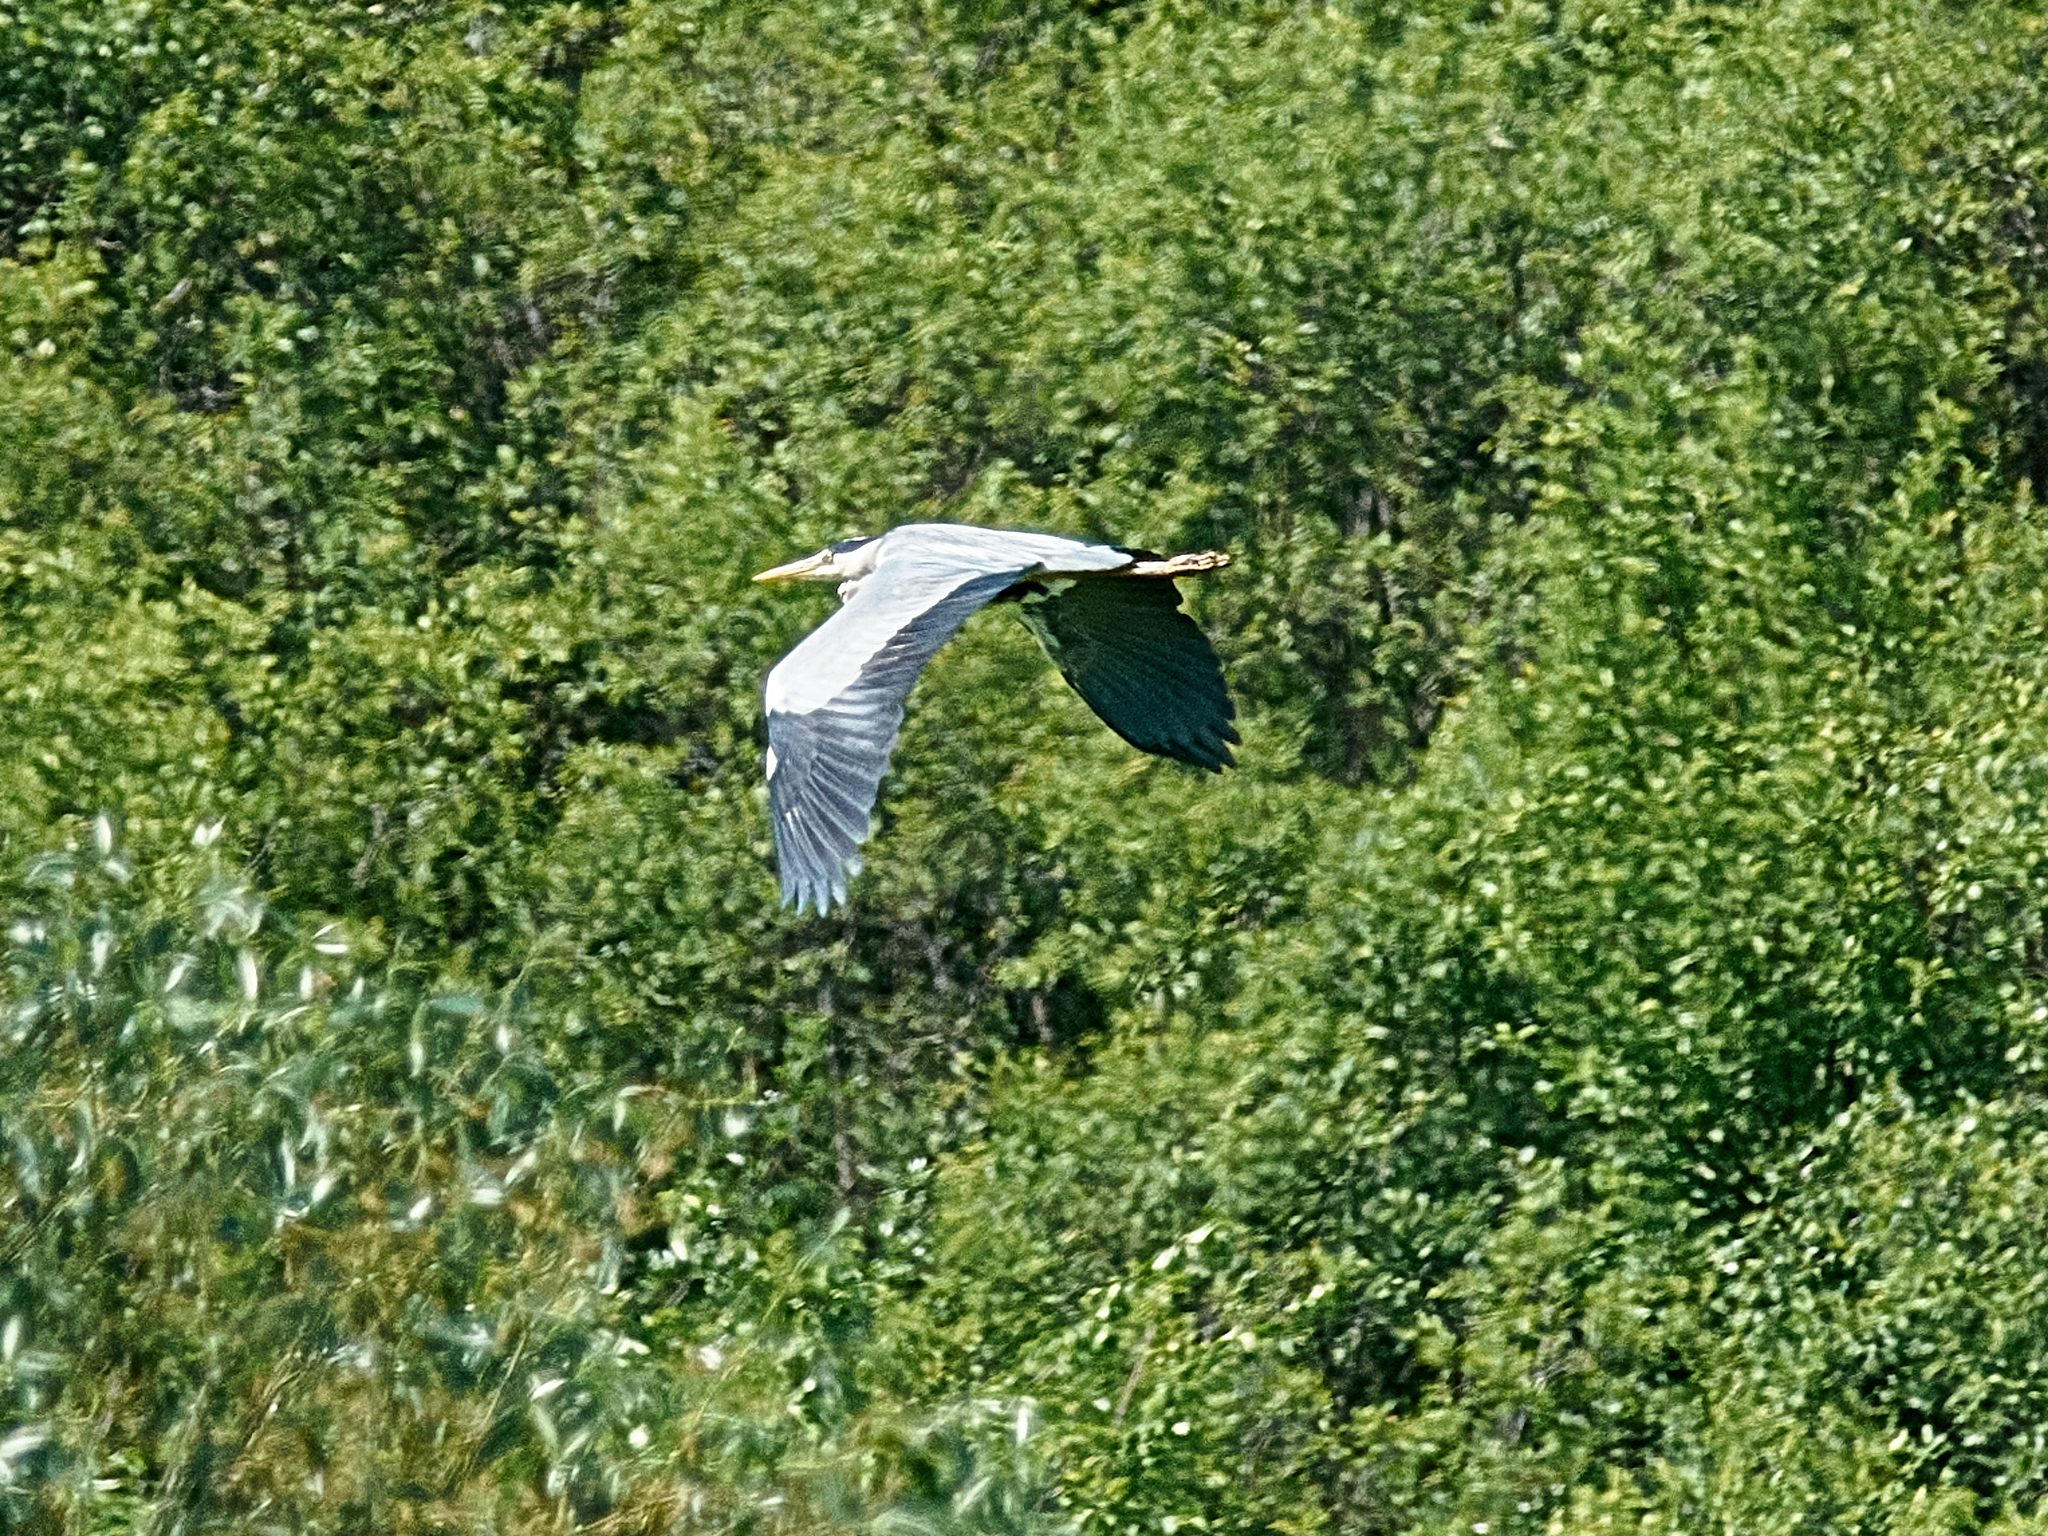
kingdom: Animalia
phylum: Chordata
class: Aves
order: Pelecaniformes
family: Ardeidae
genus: Ardea
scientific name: Ardea cinerea
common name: Grey heron
